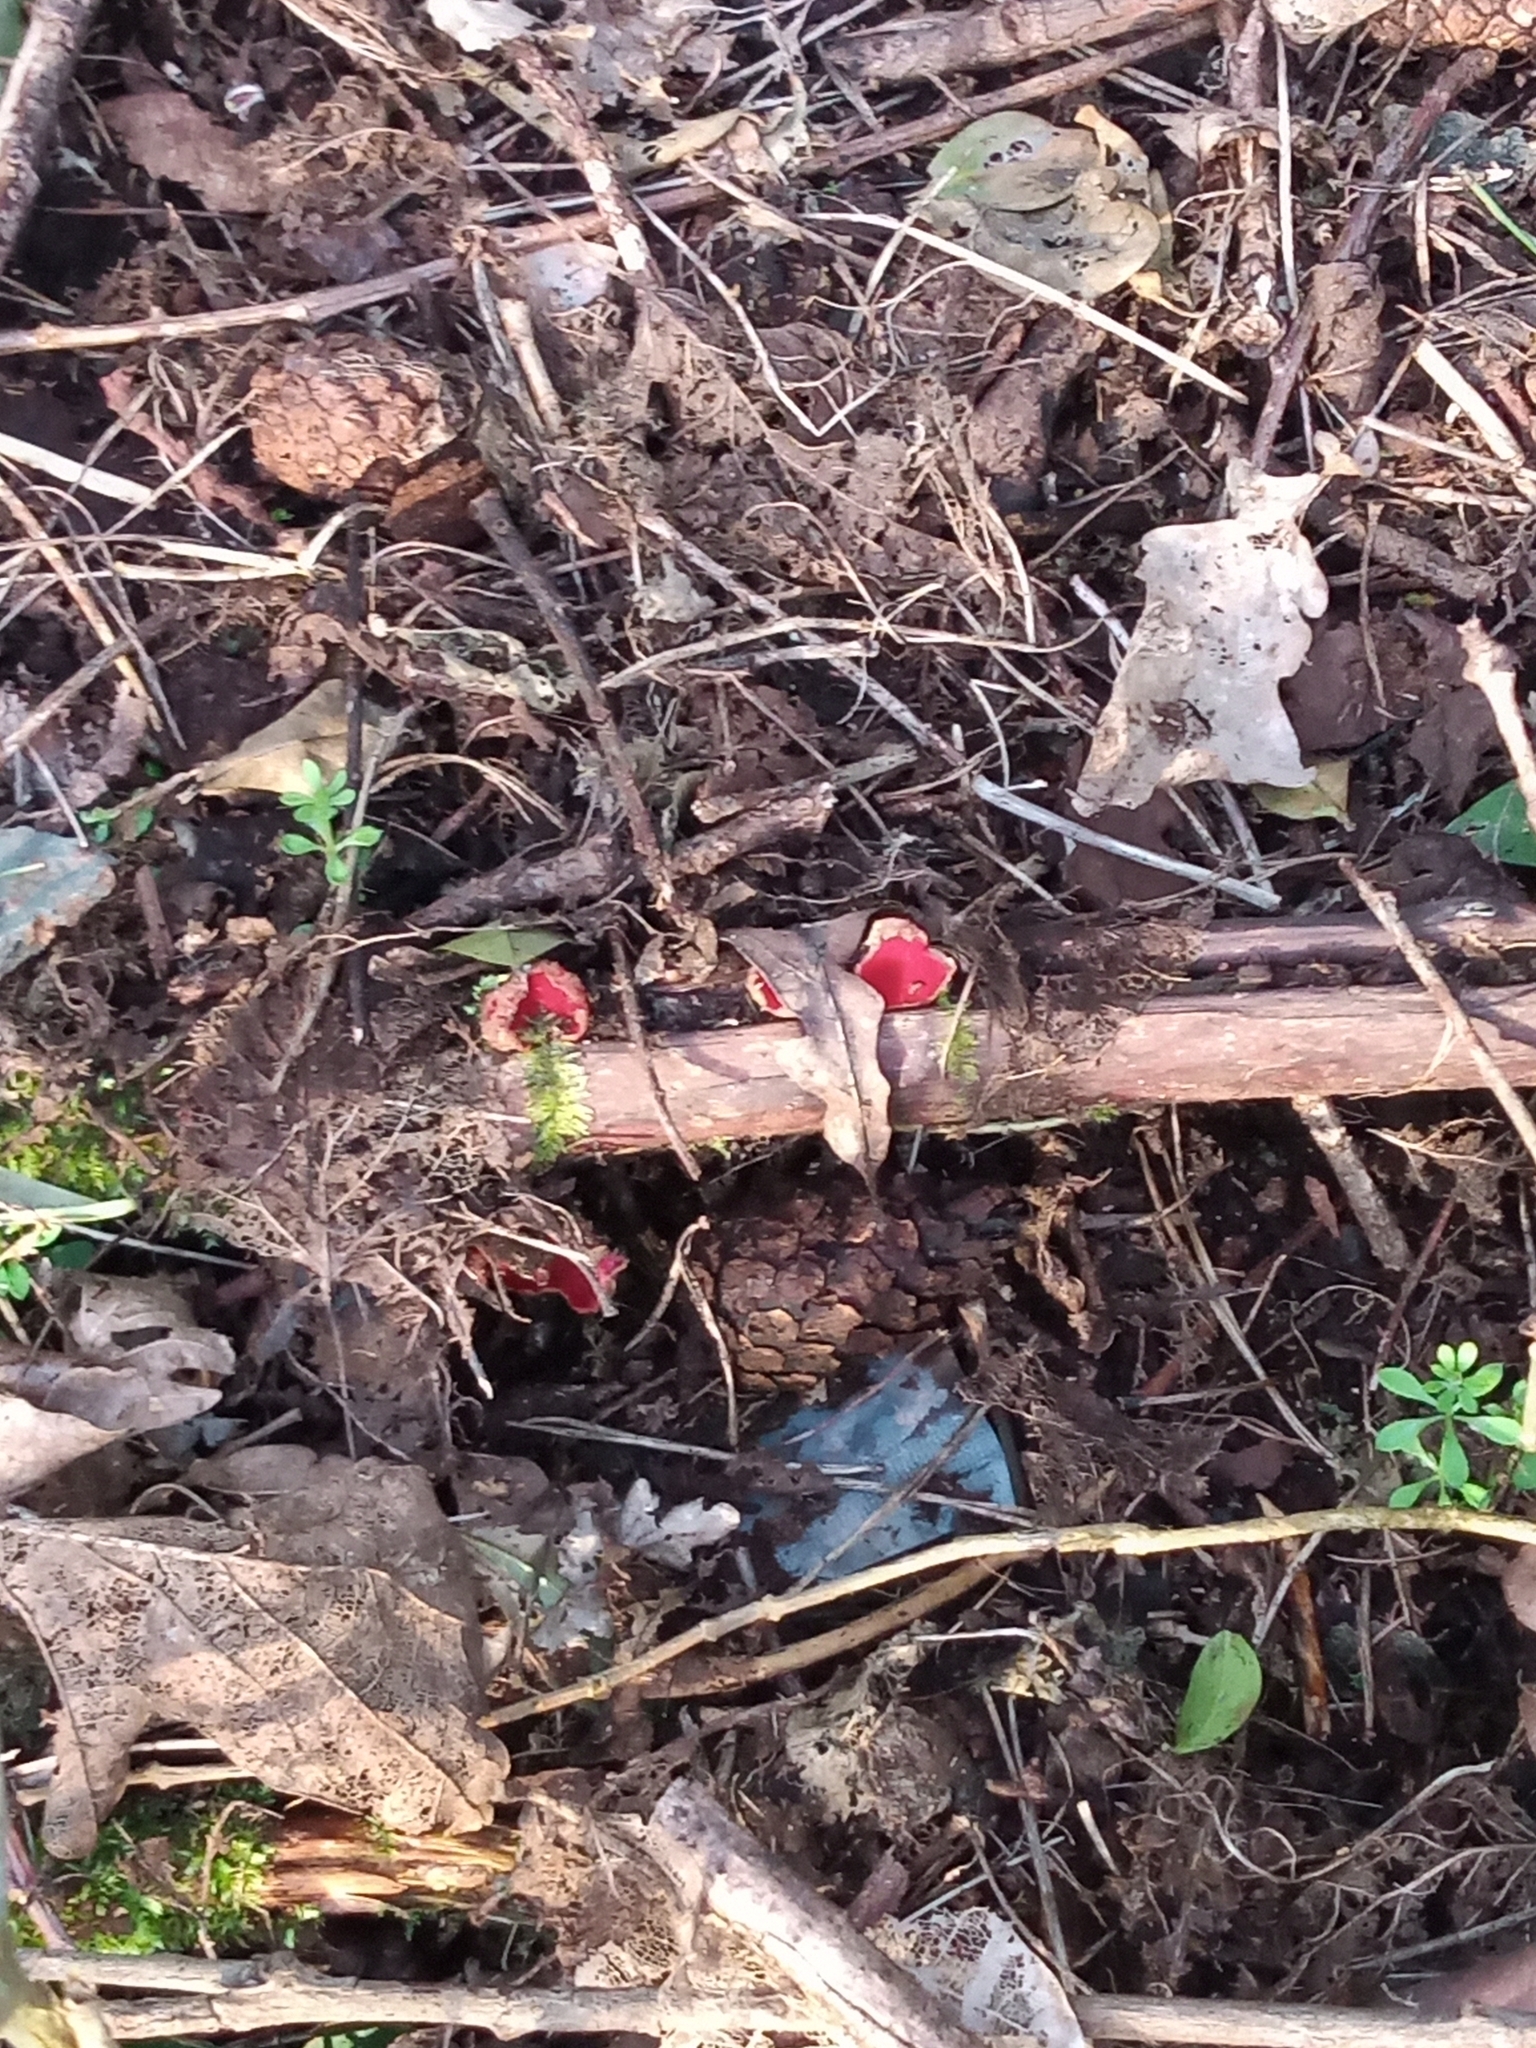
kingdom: Fungi
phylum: Ascomycota
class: Pezizomycetes
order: Pezizales
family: Sarcoscyphaceae
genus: Sarcoscypha
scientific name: Sarcoscypha
